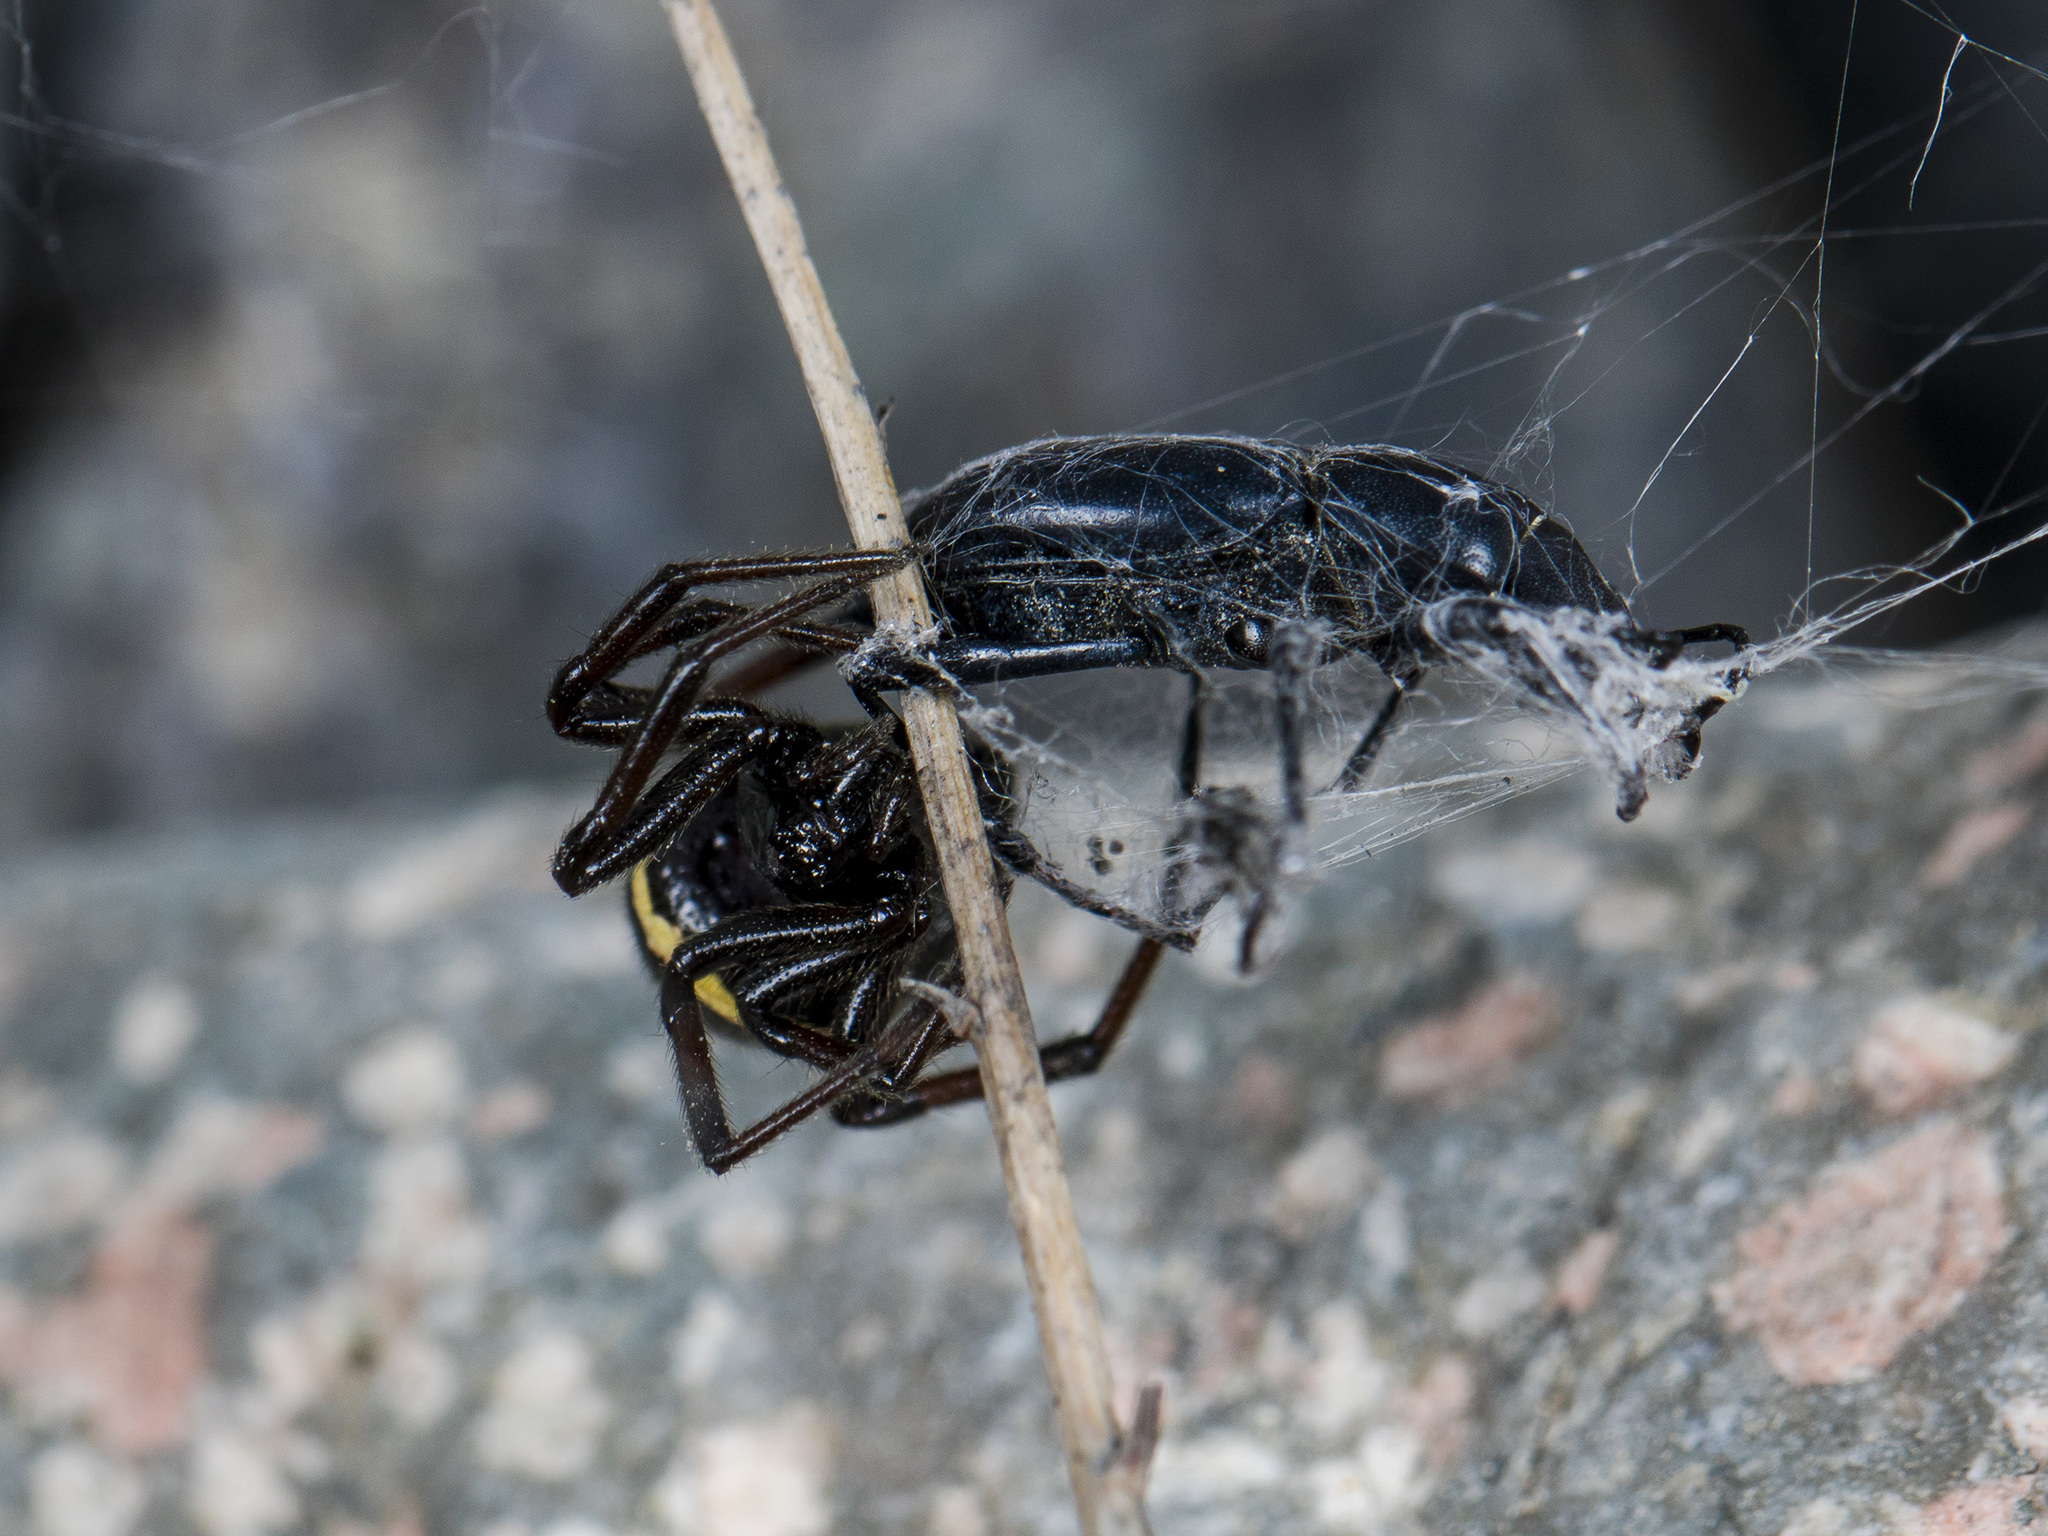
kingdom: Animalia
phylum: Arthropoda
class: Arachnida
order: Araneae
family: Theridiidae
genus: Steatoda
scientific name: Steatoda paykulliana
